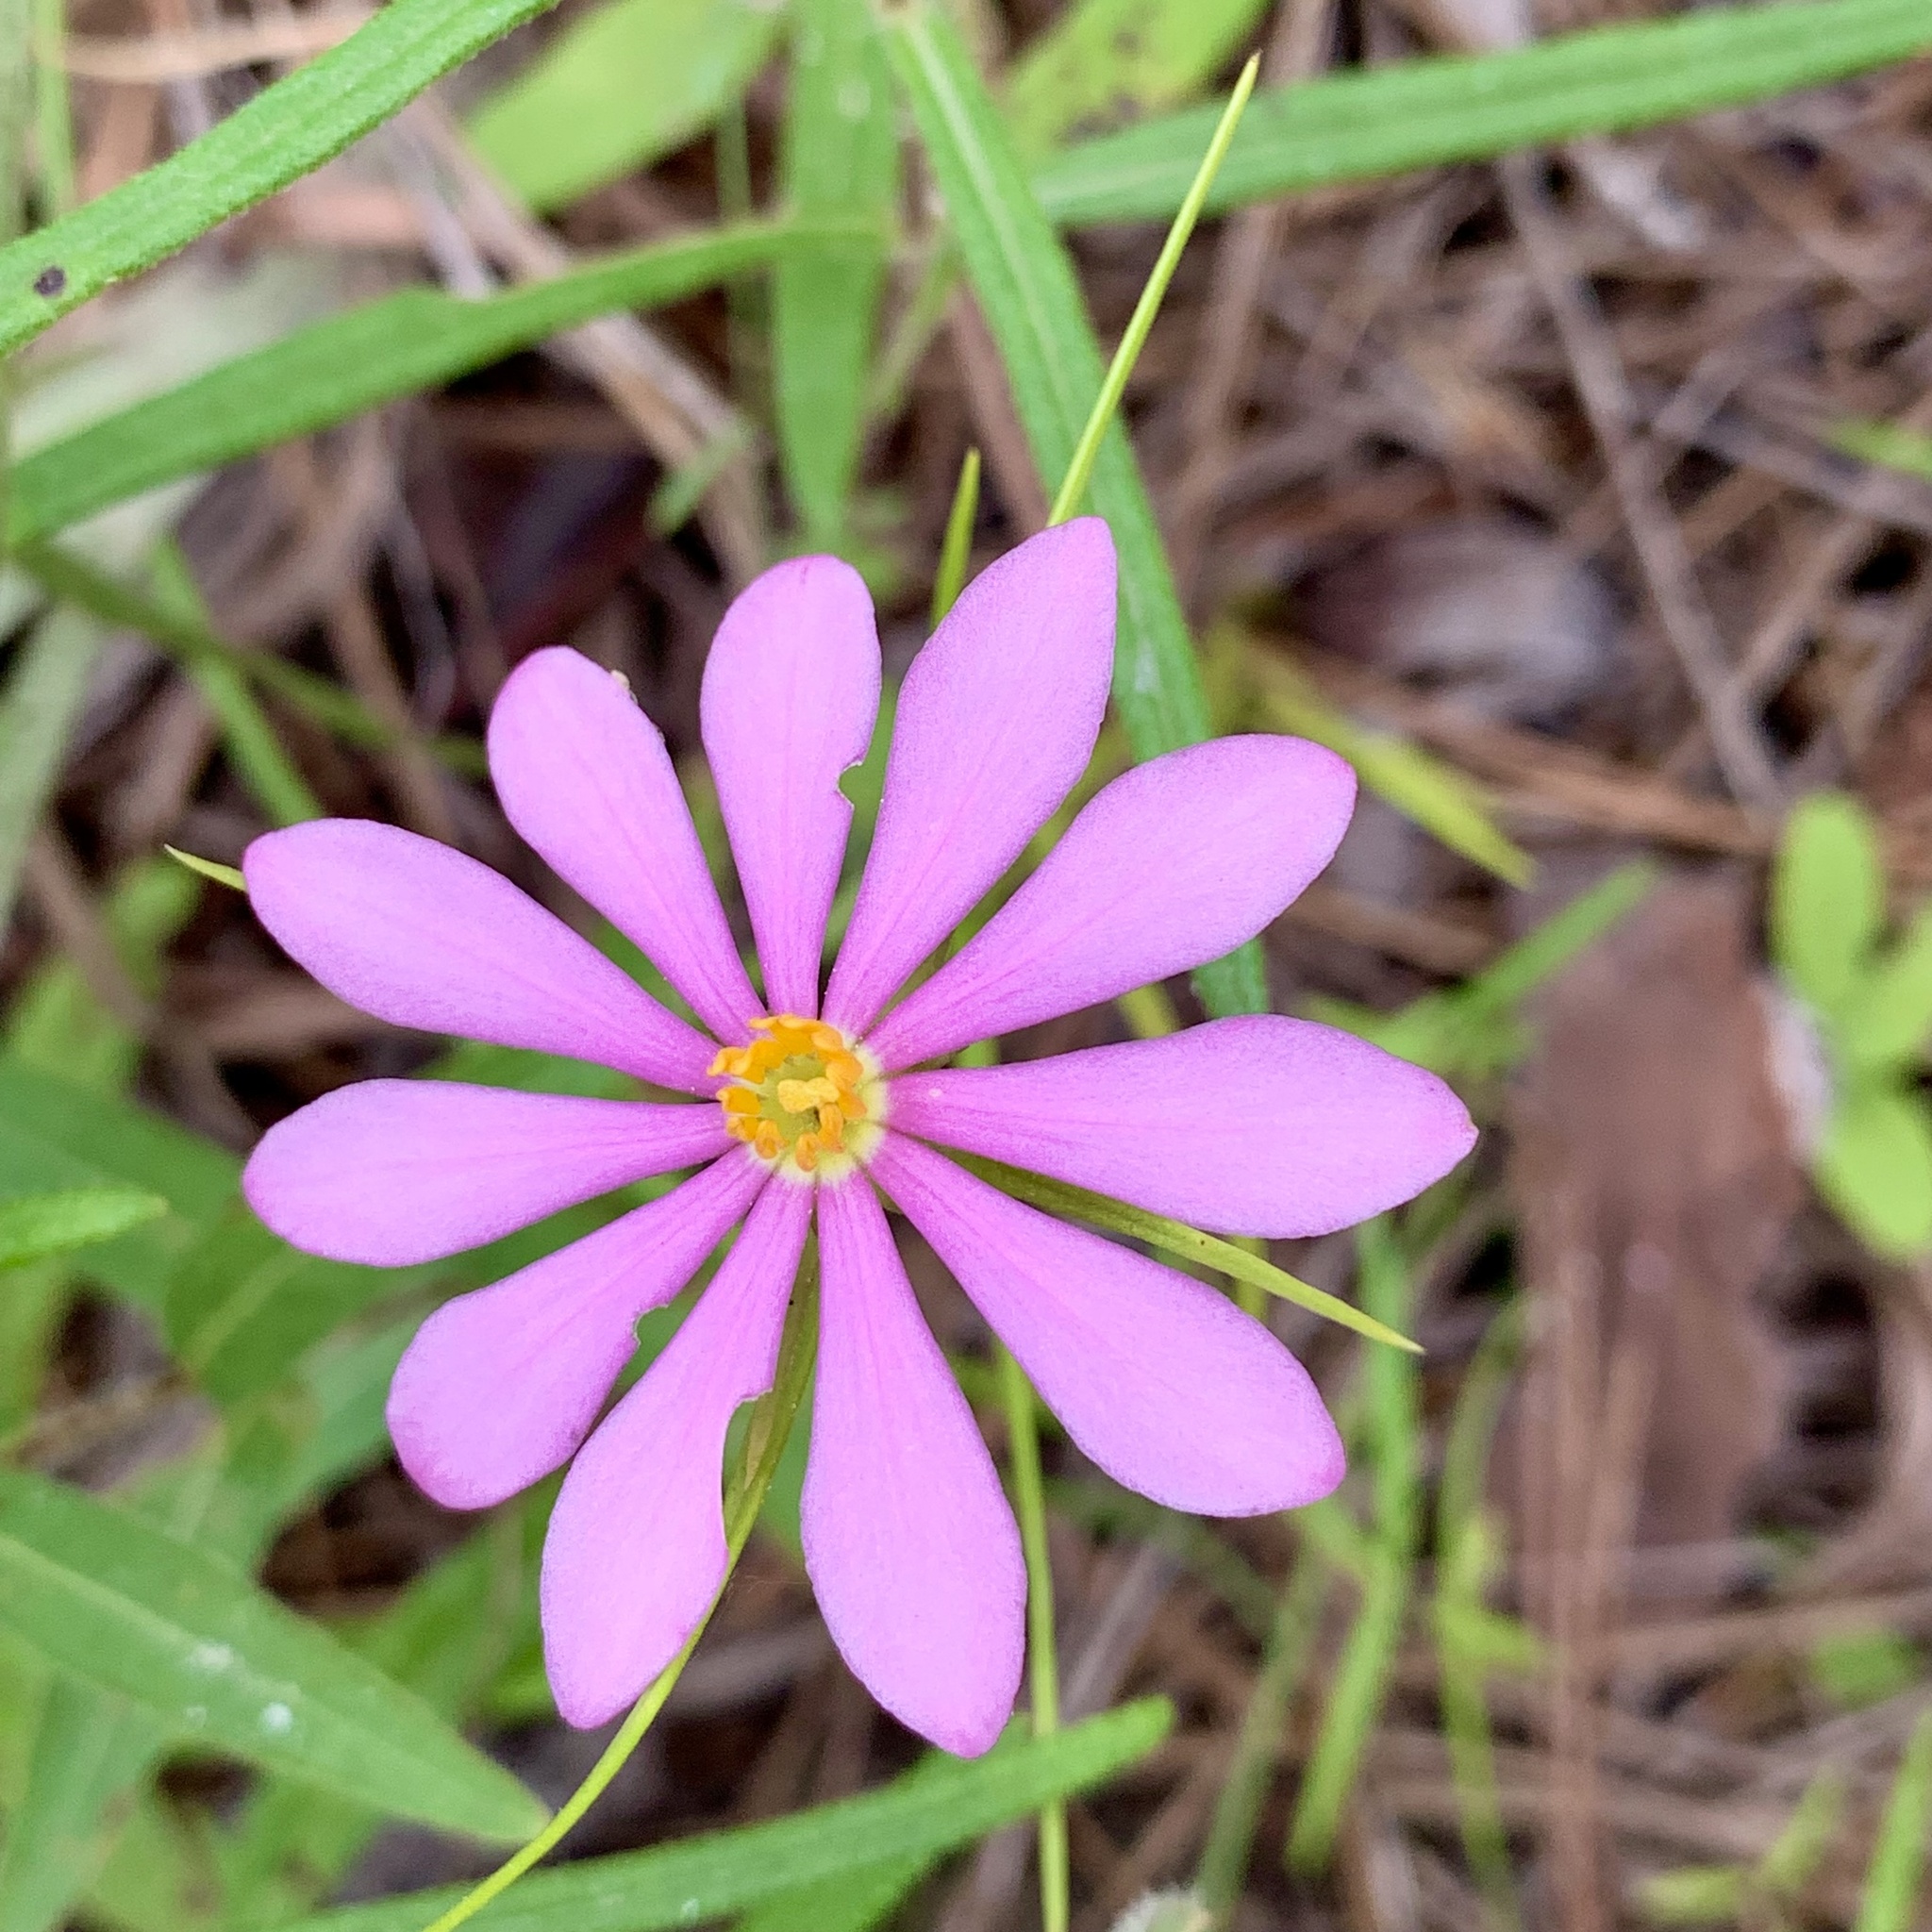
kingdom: Plantae
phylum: Tracheophyta
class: Magnoliopsida
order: Gentianales
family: Gentianaceae
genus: Sabatia
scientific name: Sabatia gentianoides
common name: Pinewoods rose-gentian
